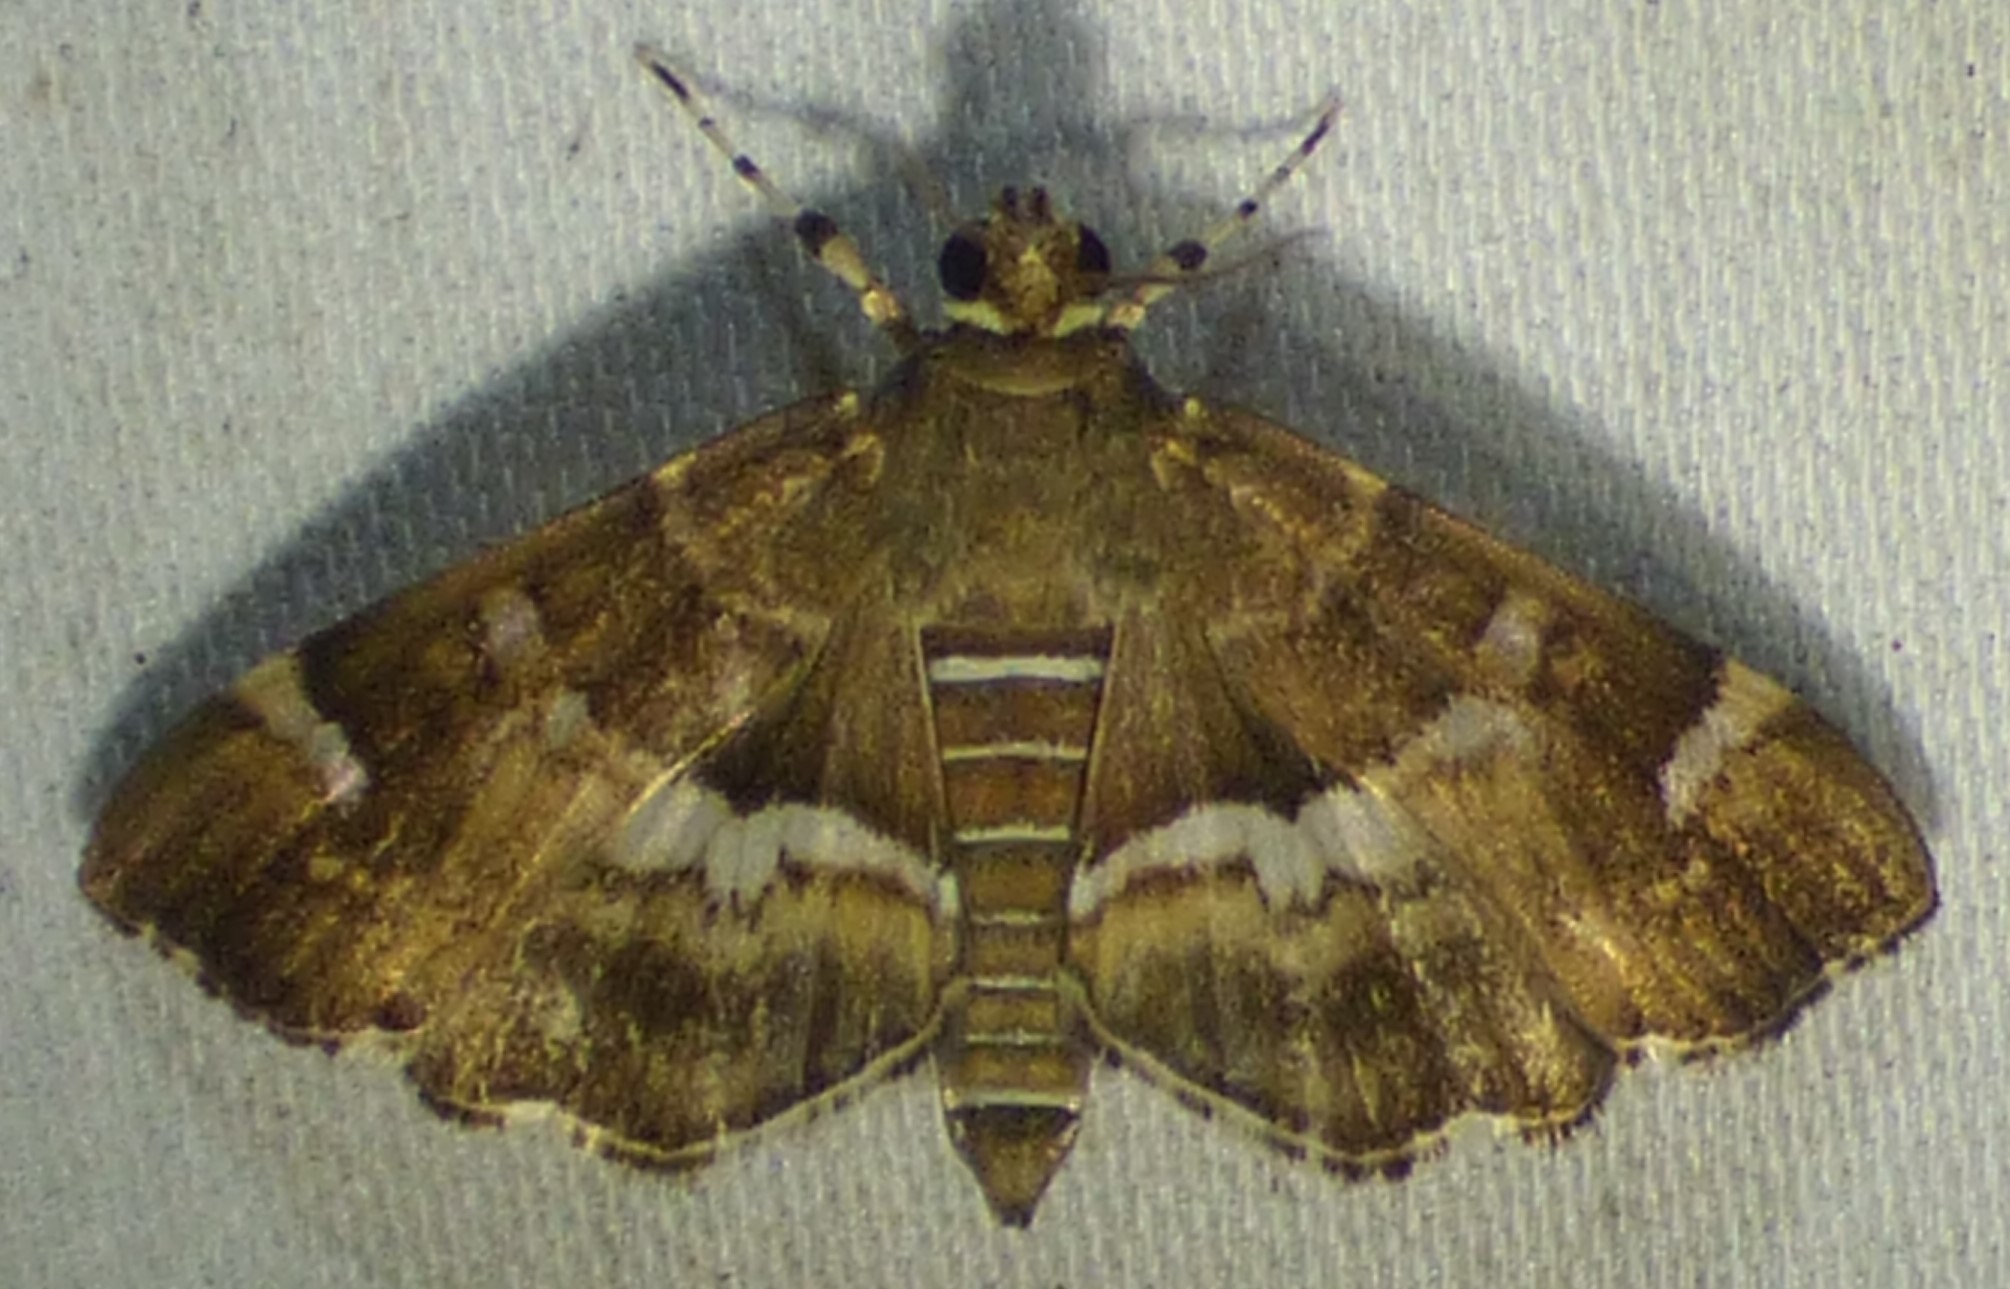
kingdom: Animalia
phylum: Arthropoda
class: Insecta
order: Lepidoptera
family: Crambidae
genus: Hymenia
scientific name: Hymenia perspectalis
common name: Spotted beet webworm
